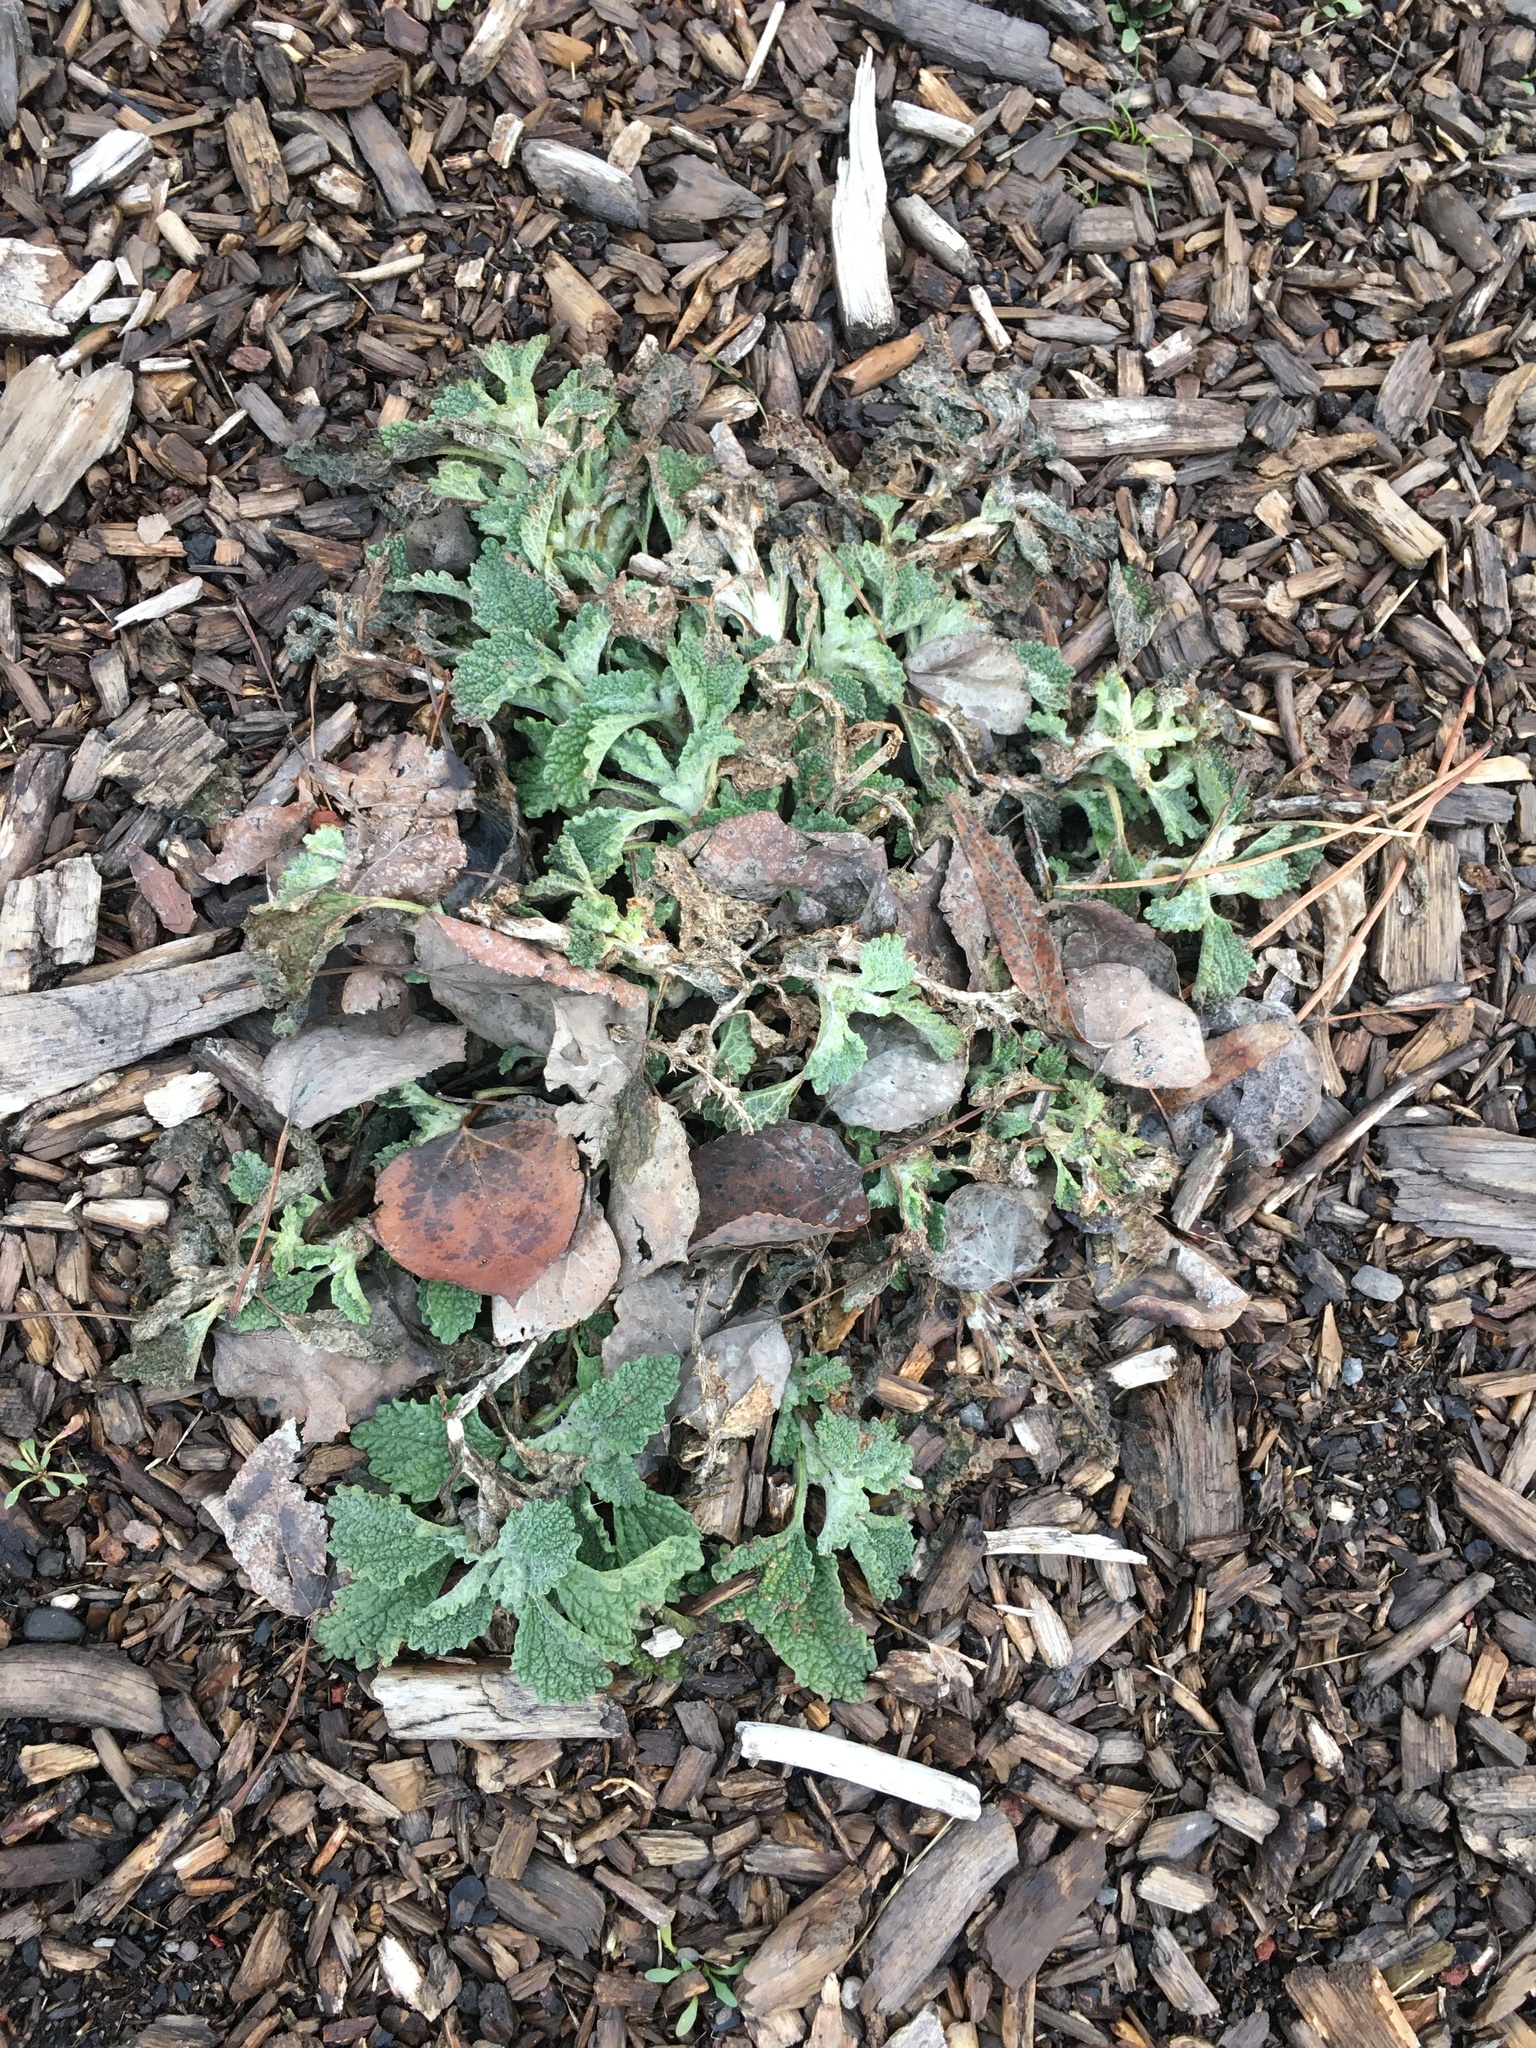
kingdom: Plantae
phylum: Tracheophyta
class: Magnoliopsida
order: Lamiales
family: Lamiaceae
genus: Marrubium
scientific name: Marrubium vulgare
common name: Horehound
